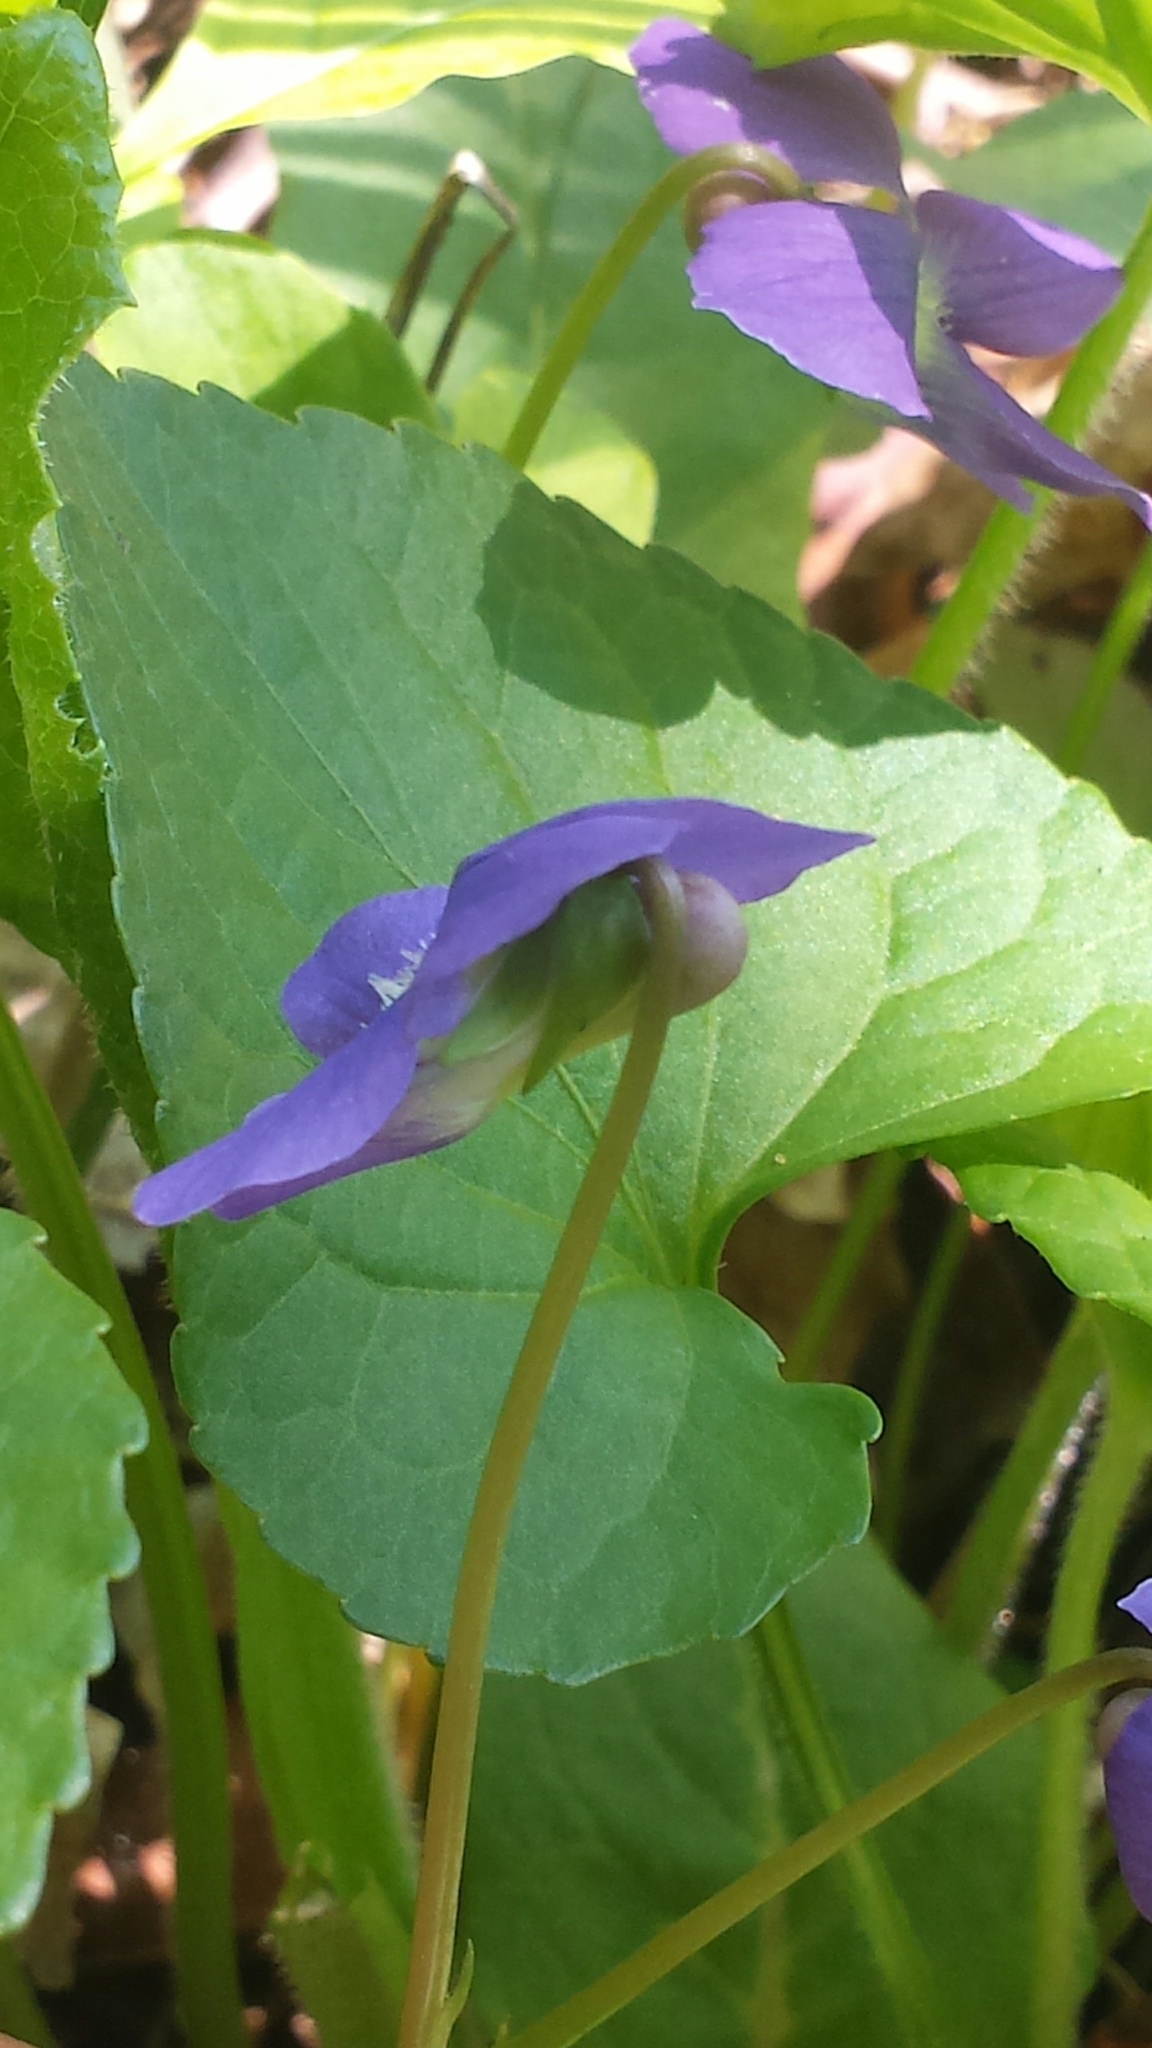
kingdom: Plantae
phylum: Tracheophyta
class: Magnoliopsida
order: Malpighiales
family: Violaceae
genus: Viola
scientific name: Viola sororia
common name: Dooryard violet
